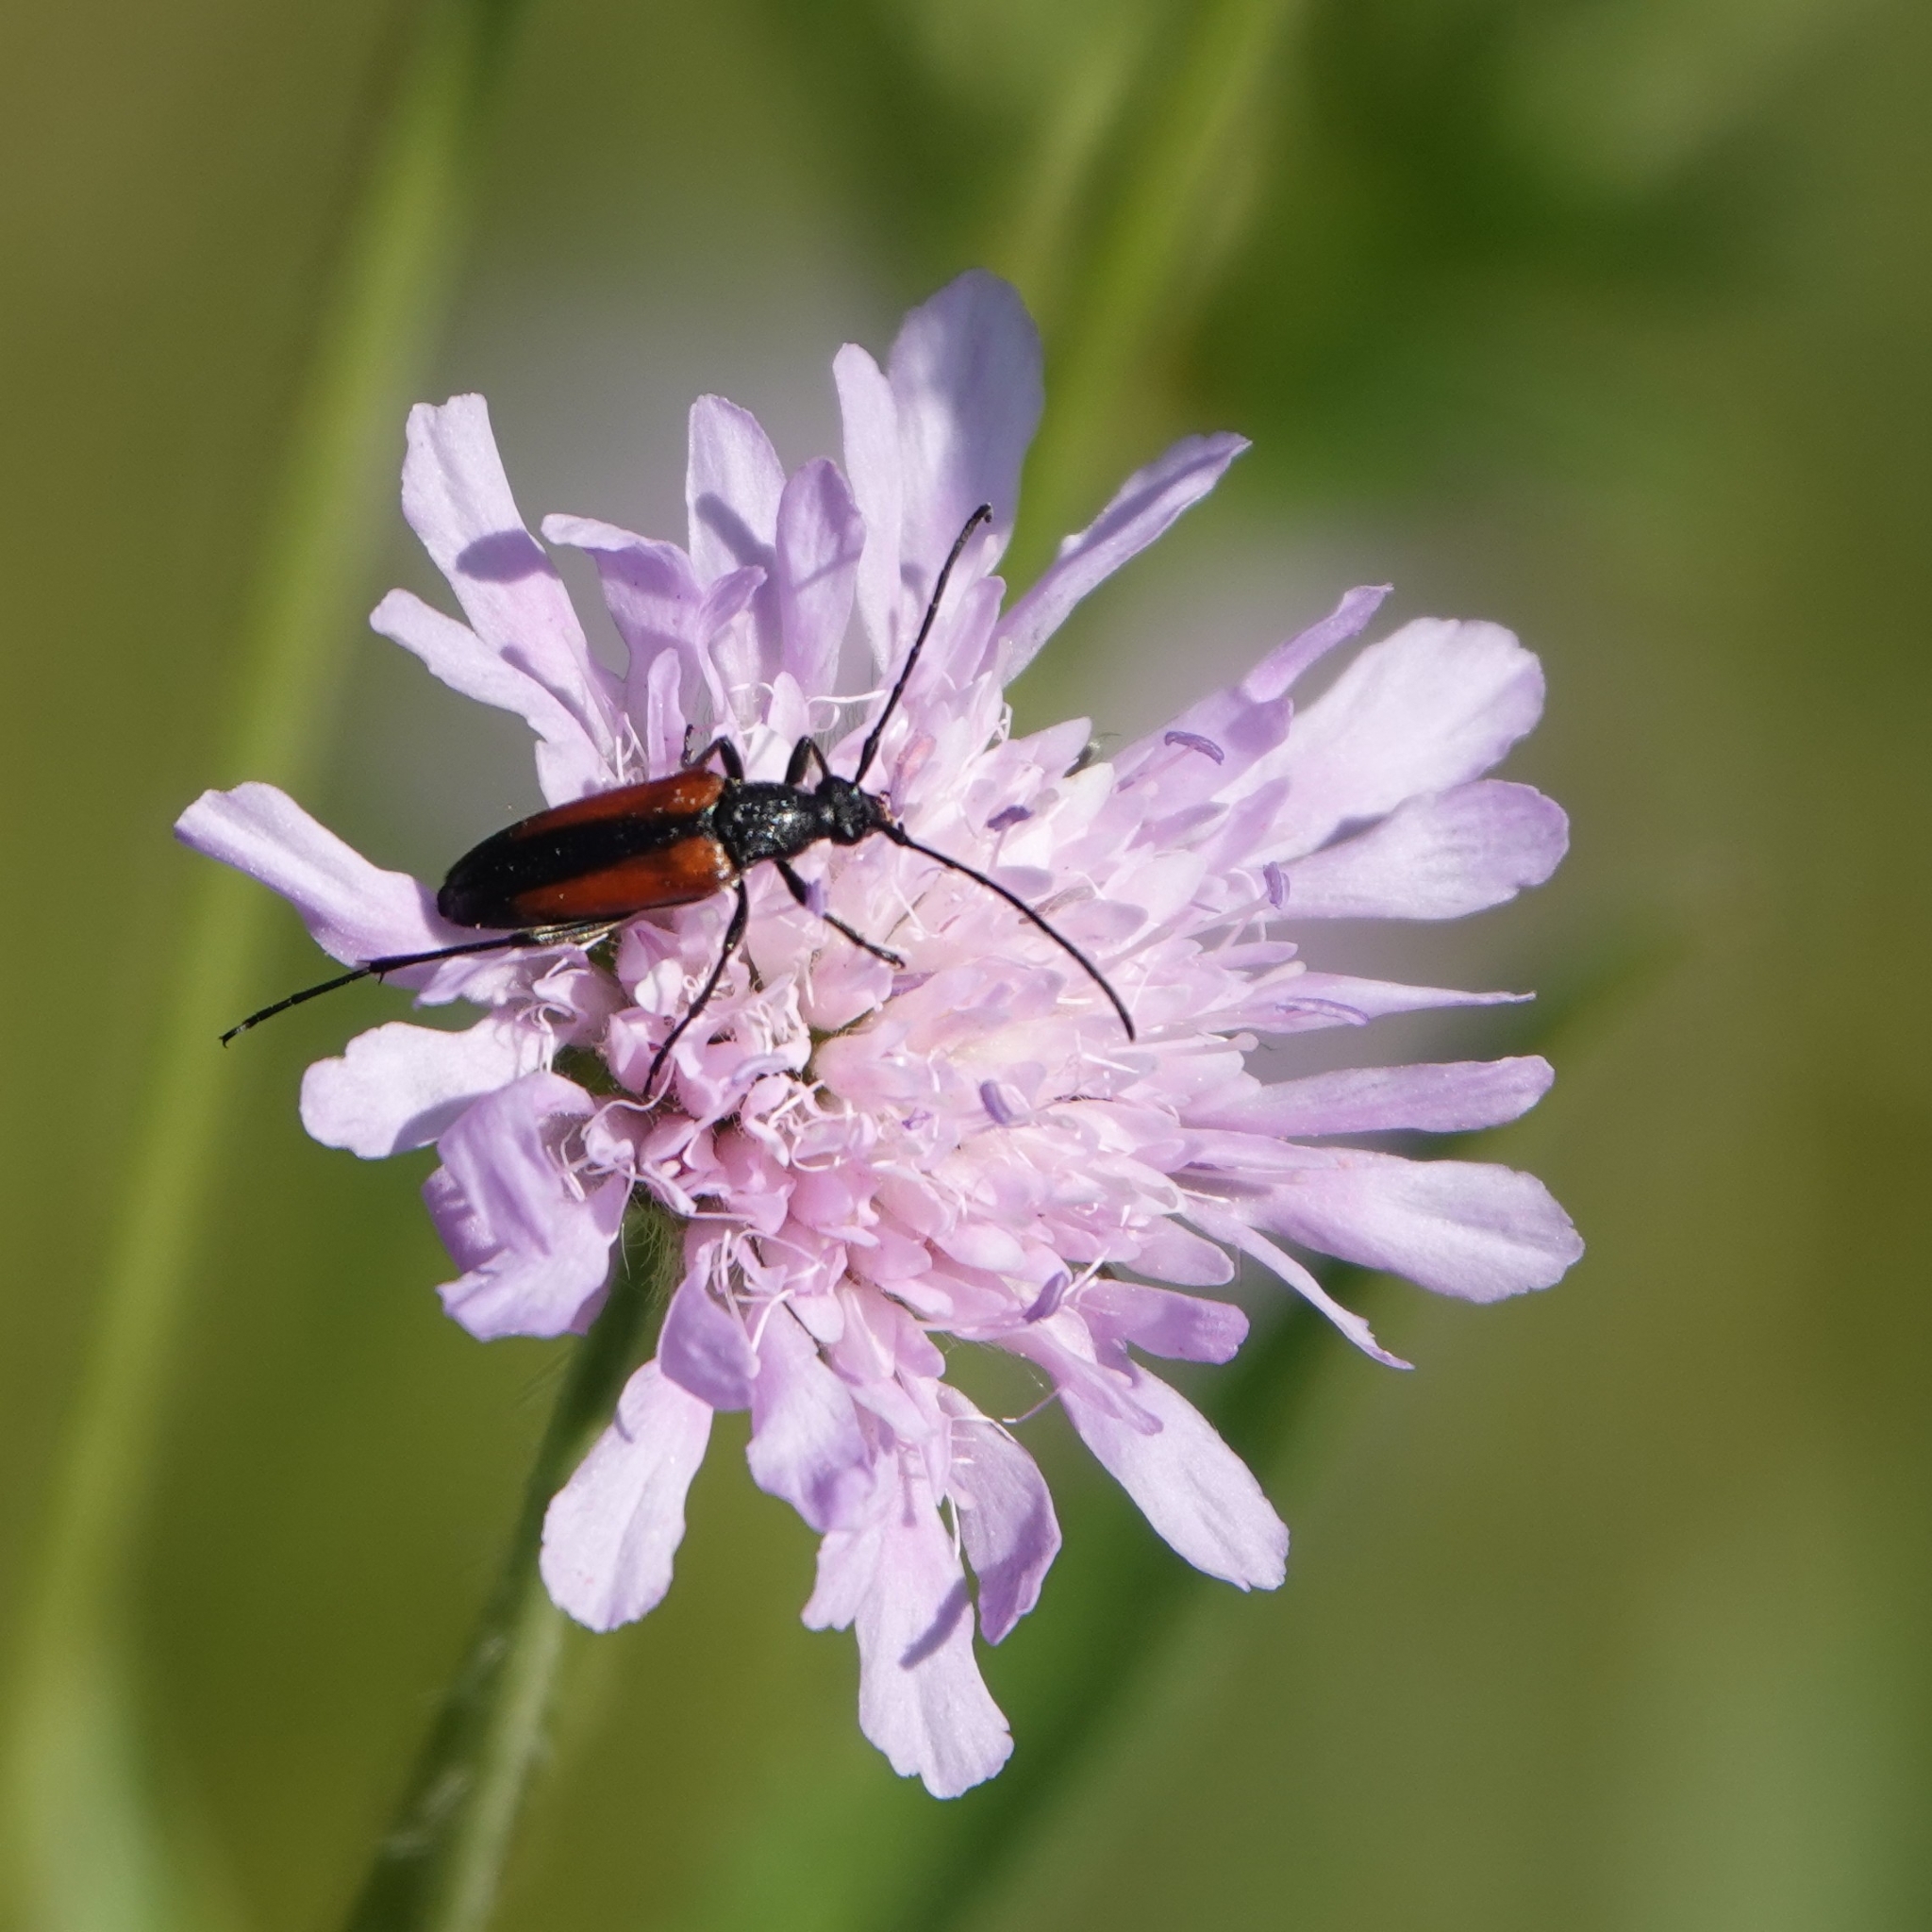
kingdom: Animalia
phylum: Arthropoda
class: Insecta
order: Coleoptera
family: Cerambycidae
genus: Stenurella
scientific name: Stenurella melanura
